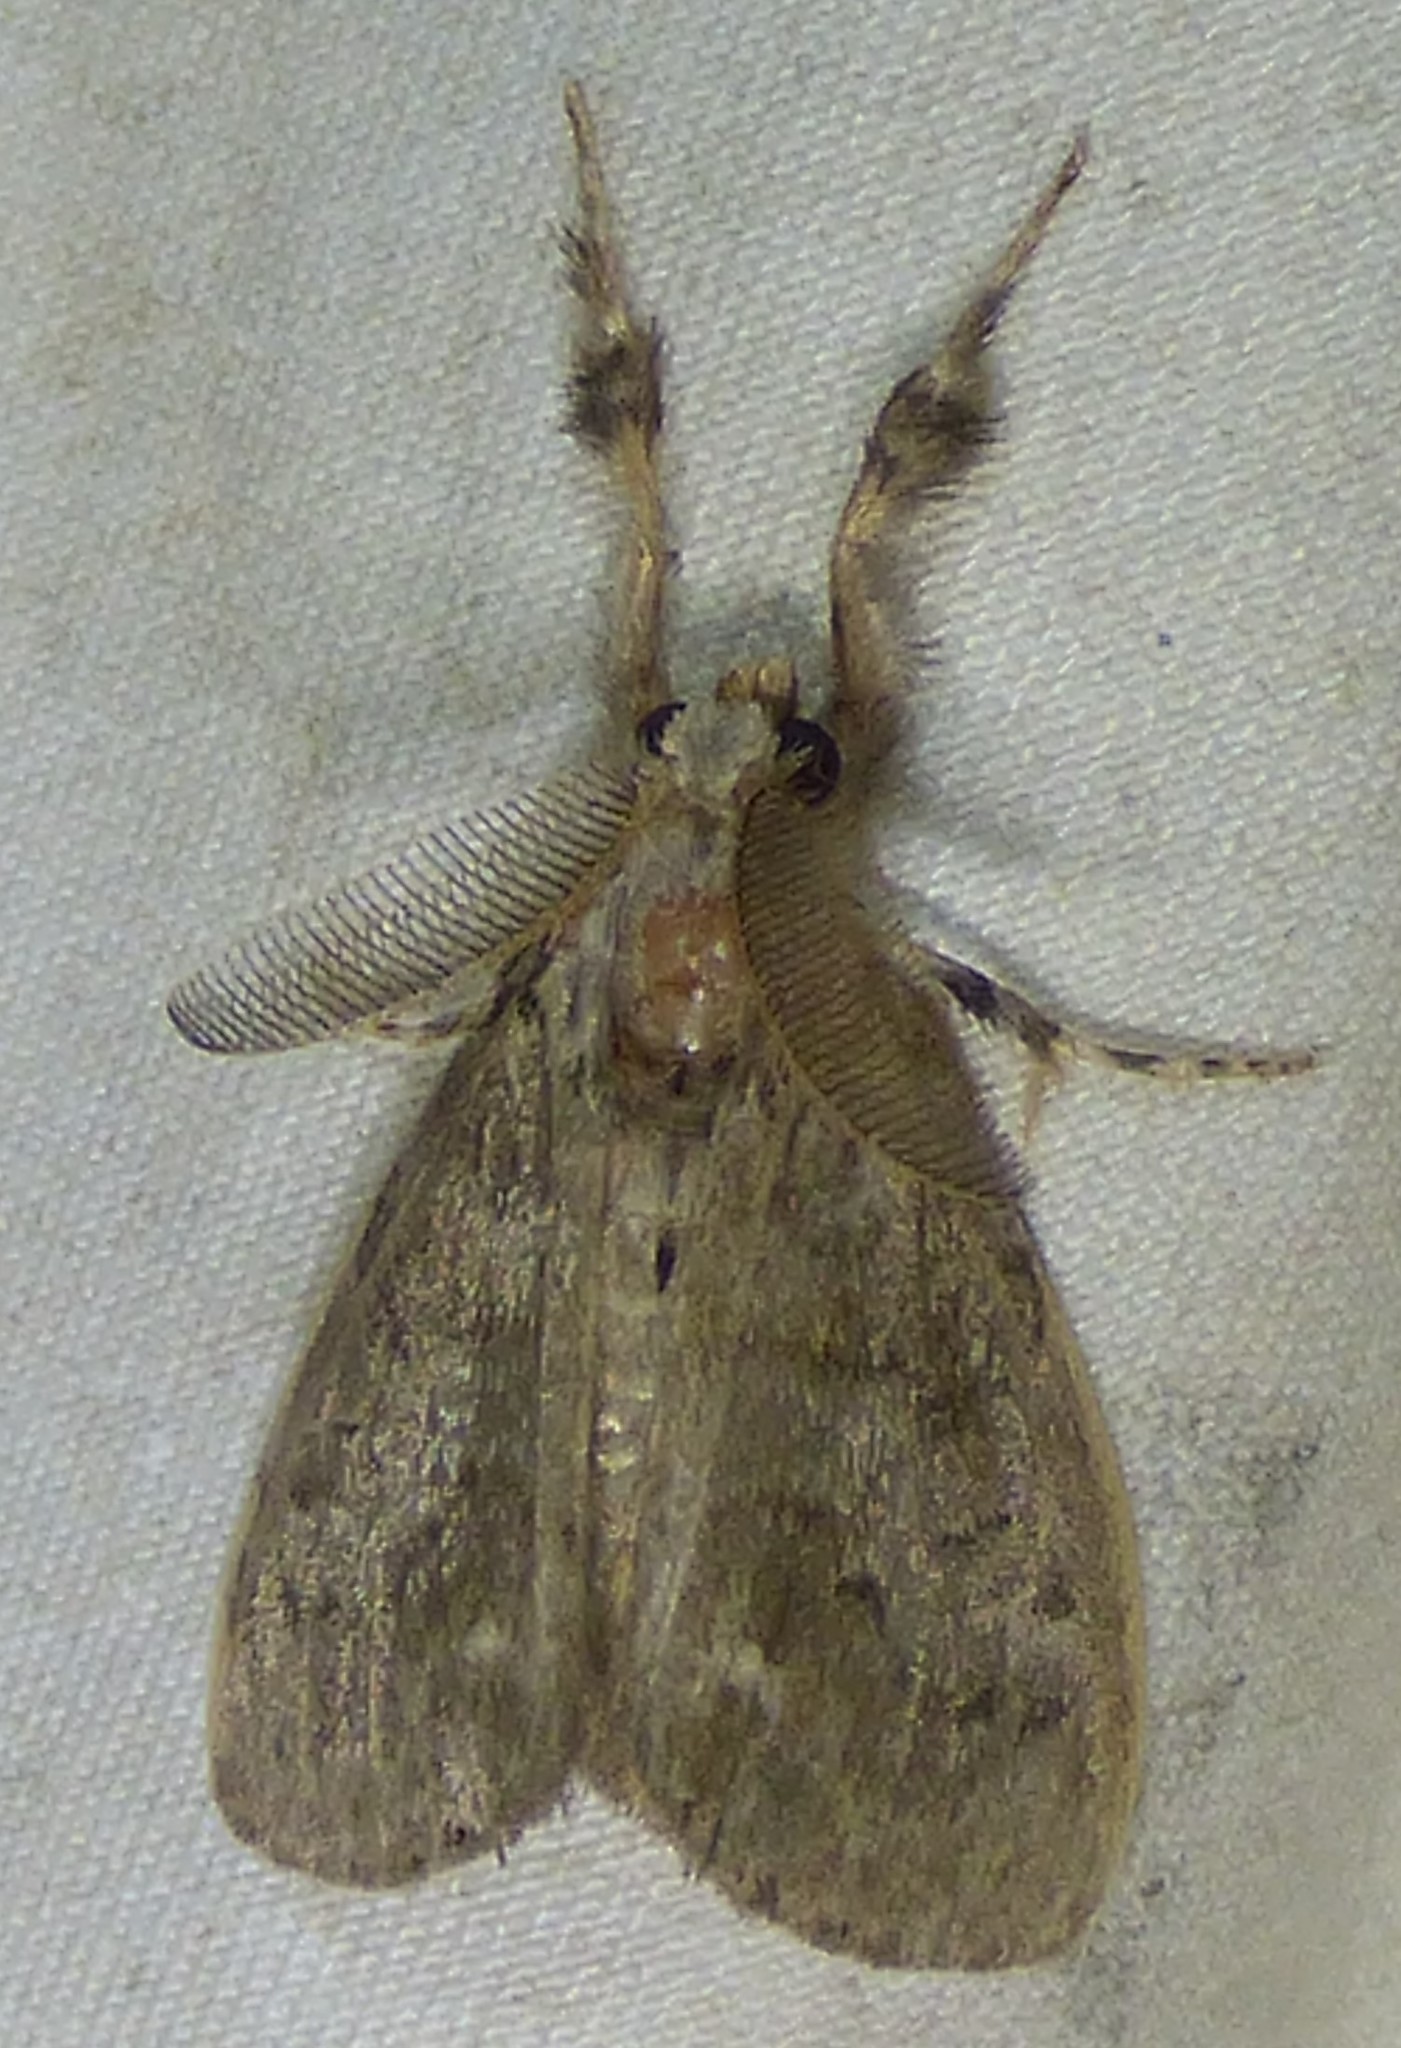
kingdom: Animalia
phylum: Arthropoda
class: Insecta
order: Lepidoptera
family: Erebidae
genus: Orgyia
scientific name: Orgyia leucostigma
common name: White-marked tussock moth
